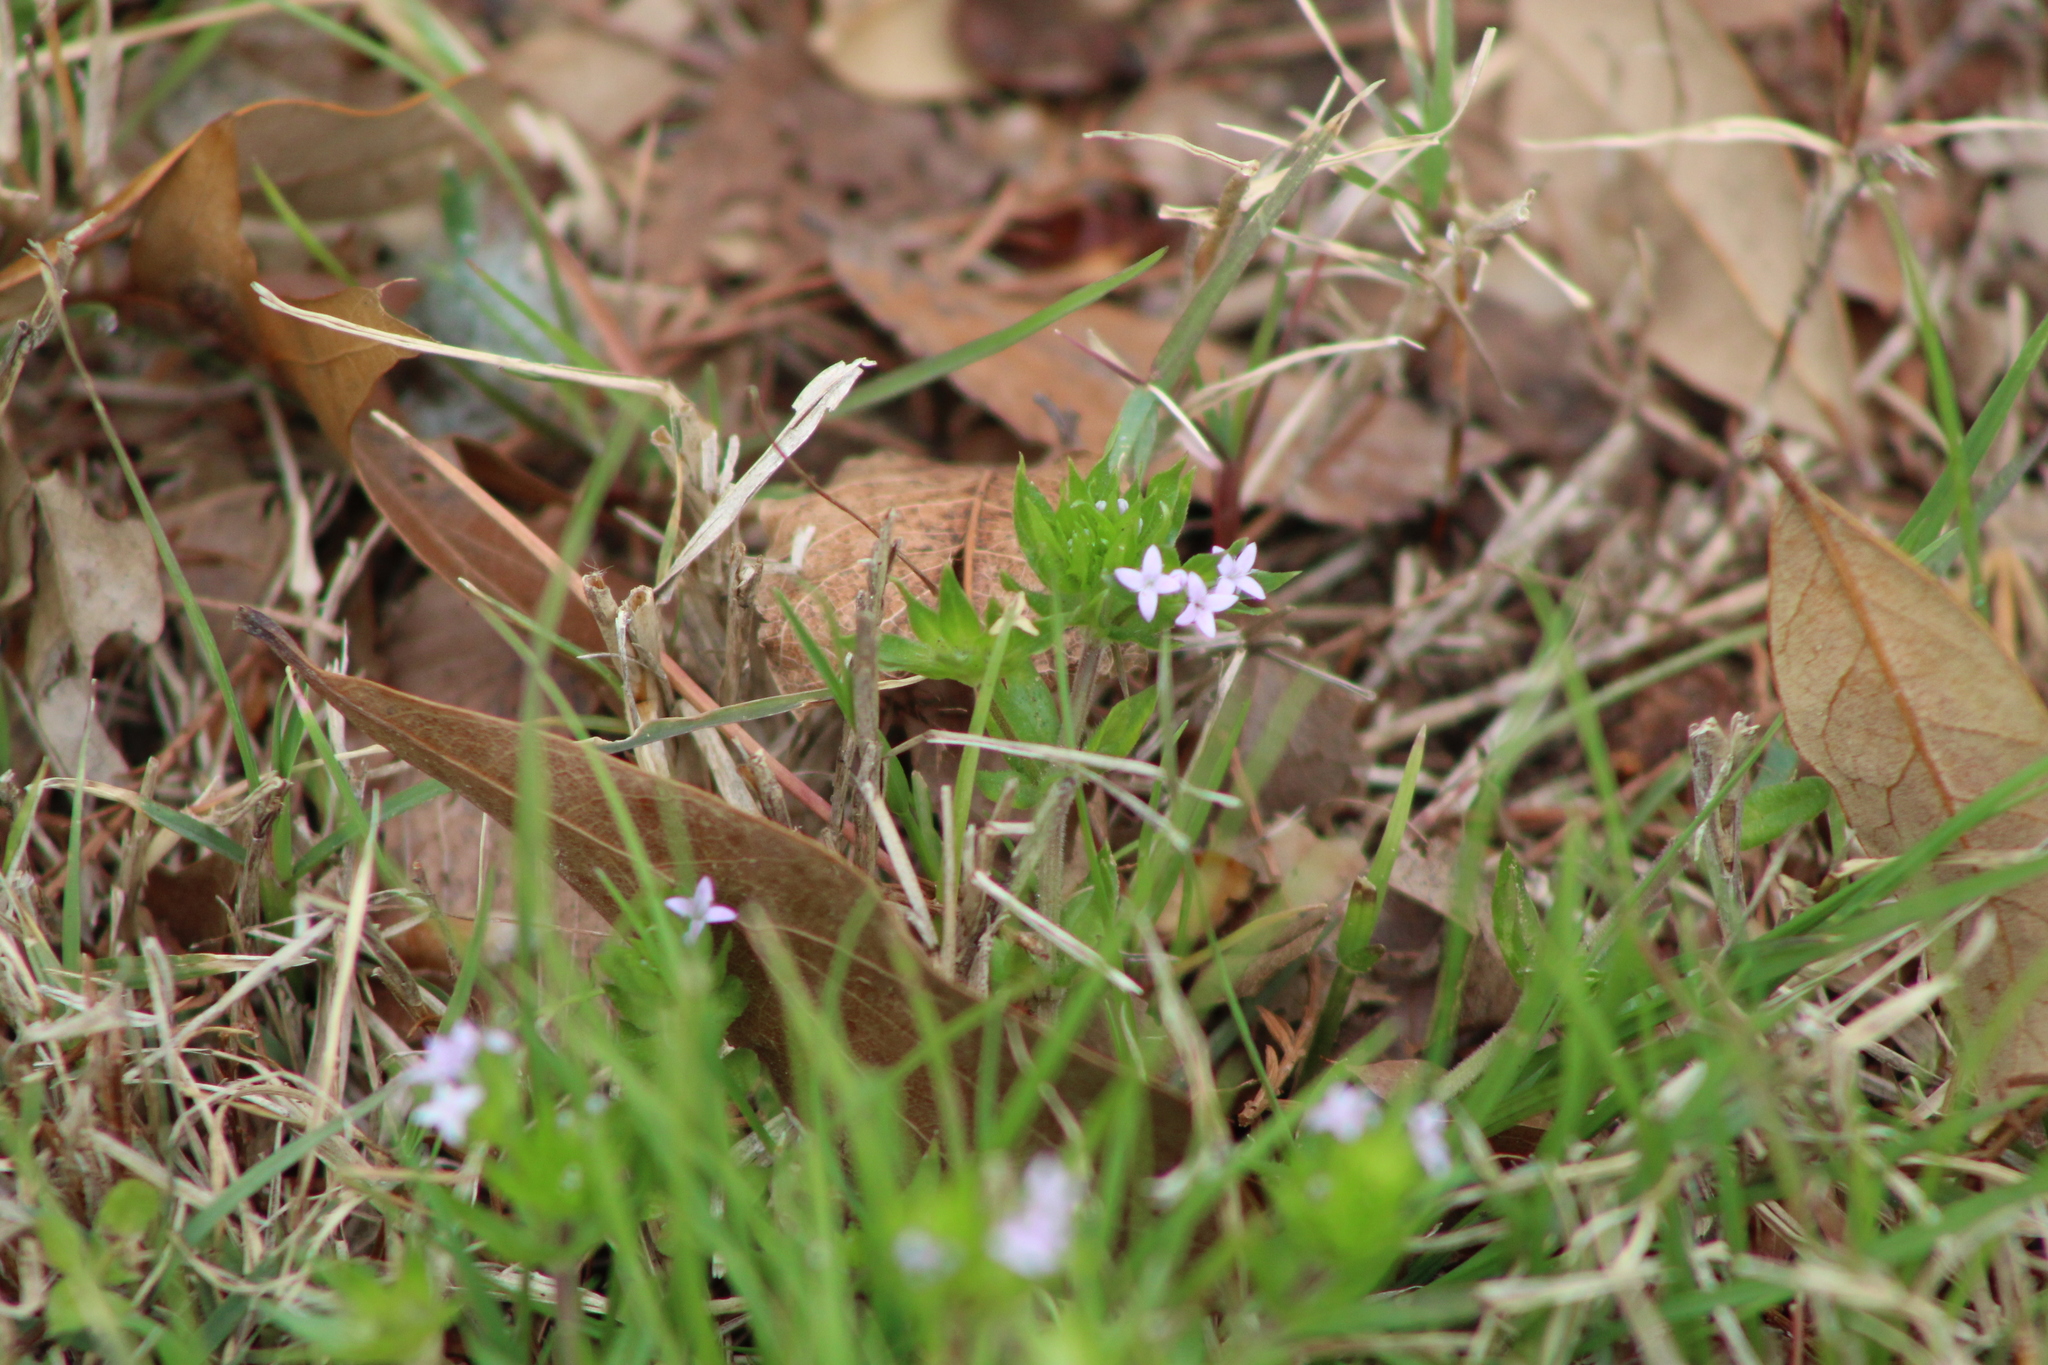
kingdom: Plantae
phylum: Tracheophyta
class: Magnoliopsida
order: Gentianales
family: Rubiaceae
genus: Sherardia
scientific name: Sherardia arvensis
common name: Field madder
